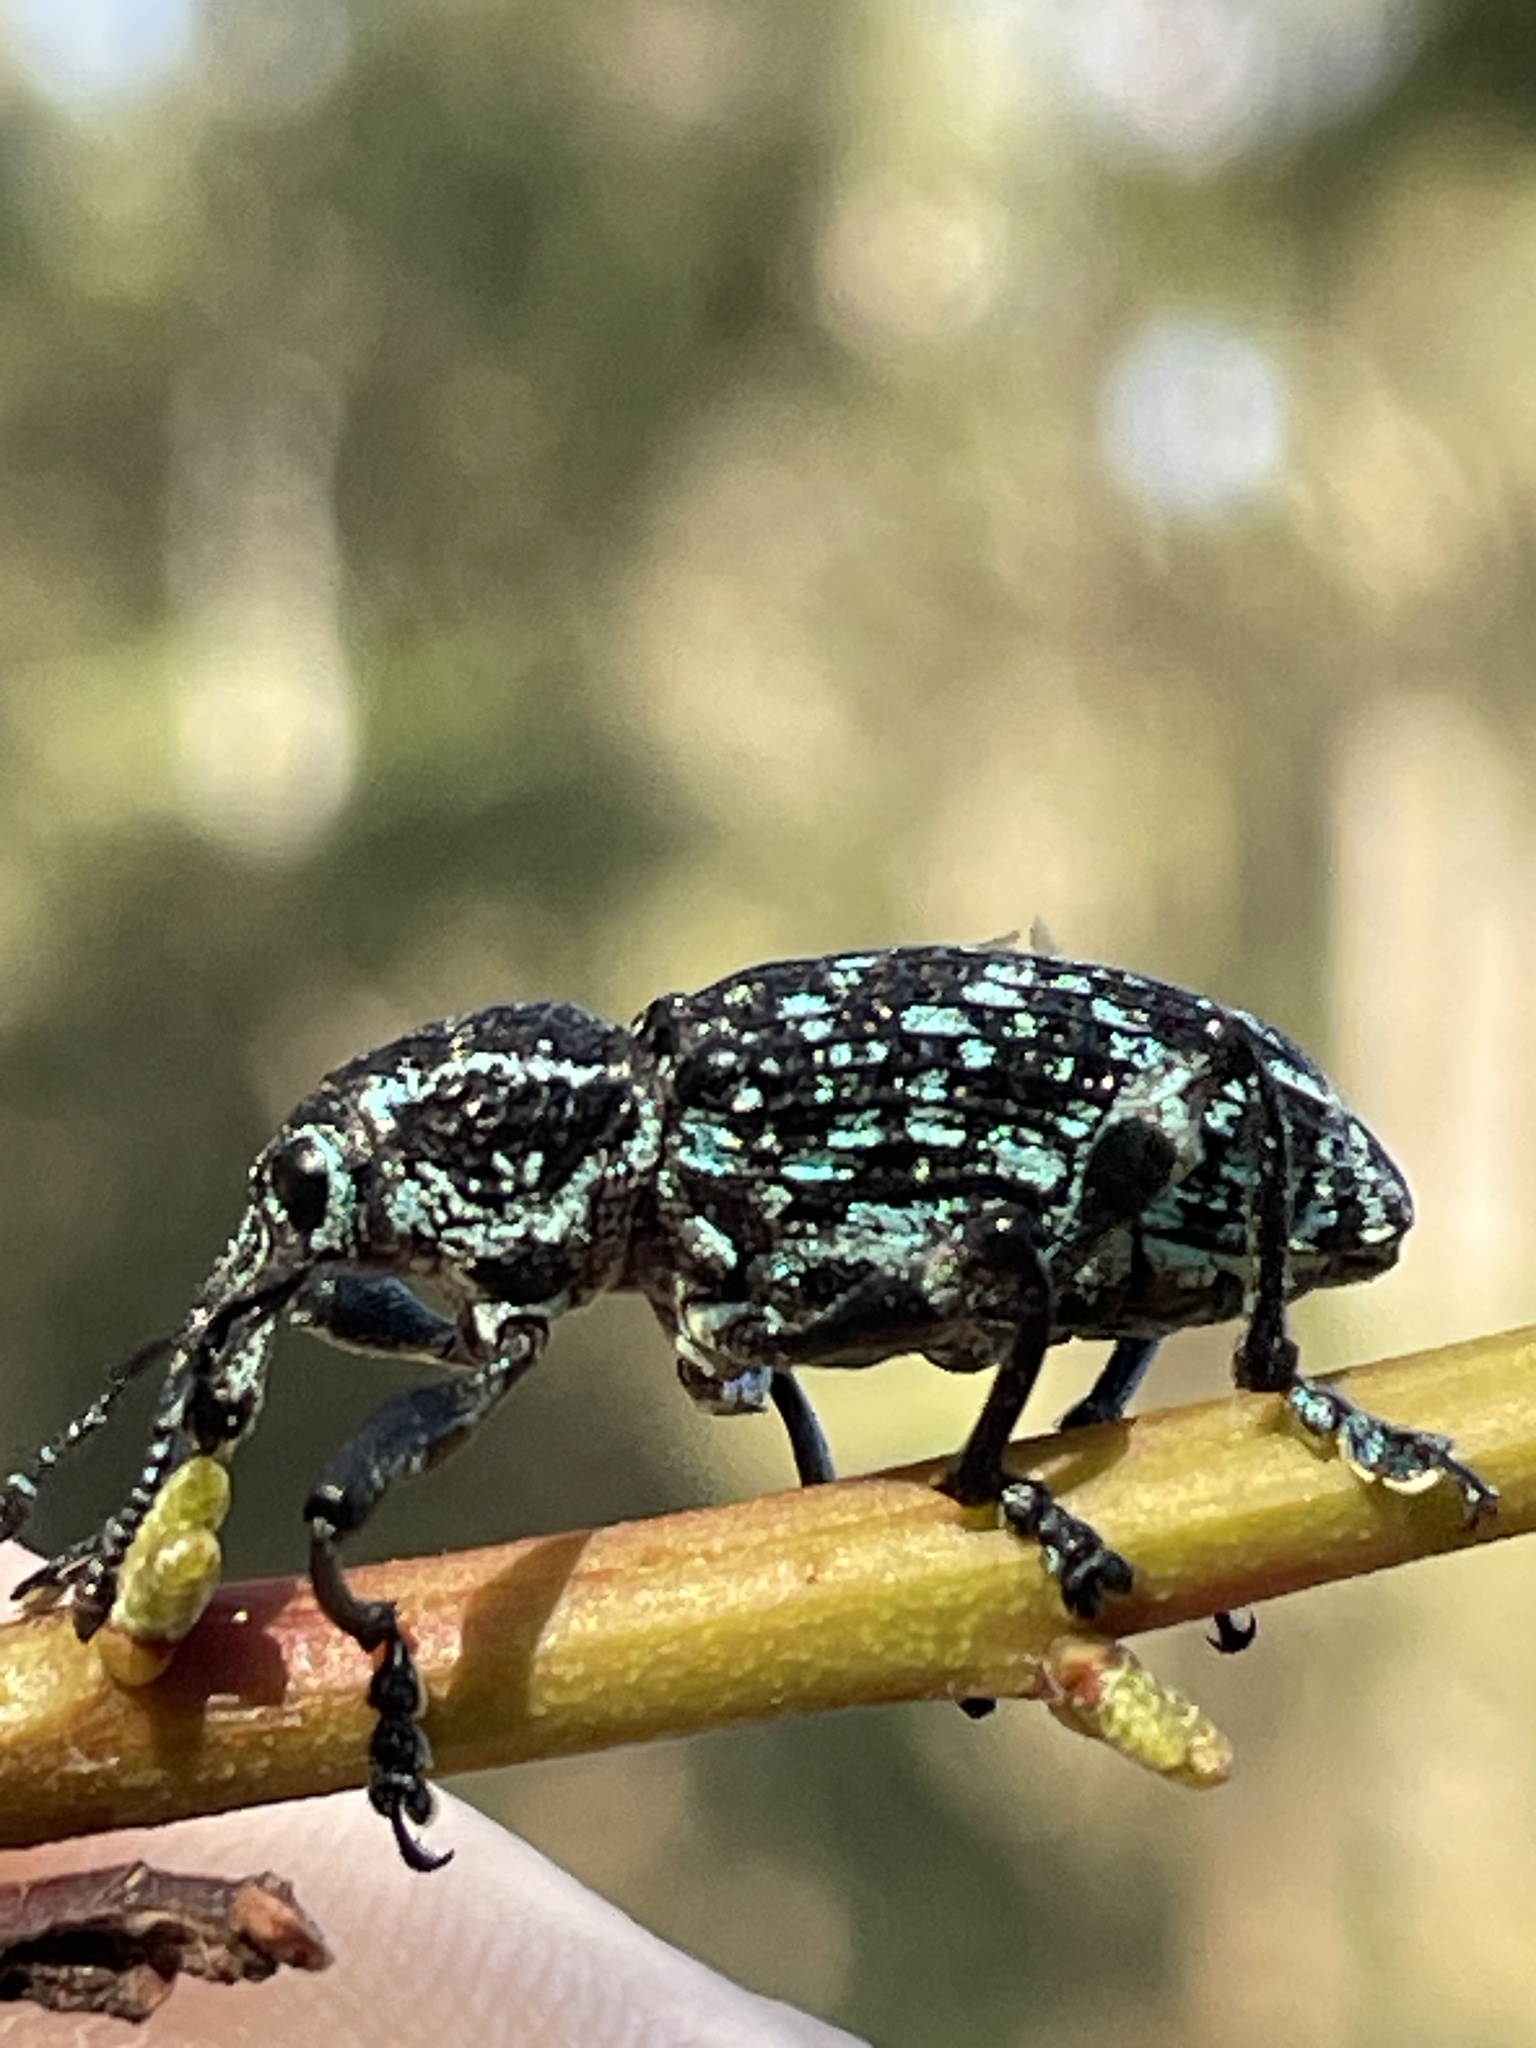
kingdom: Animalia
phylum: Arthropoda
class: Insecta
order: Coleoptera
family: Curculionidae
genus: Chrysolopus
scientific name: Chrysolopus spectabilis
